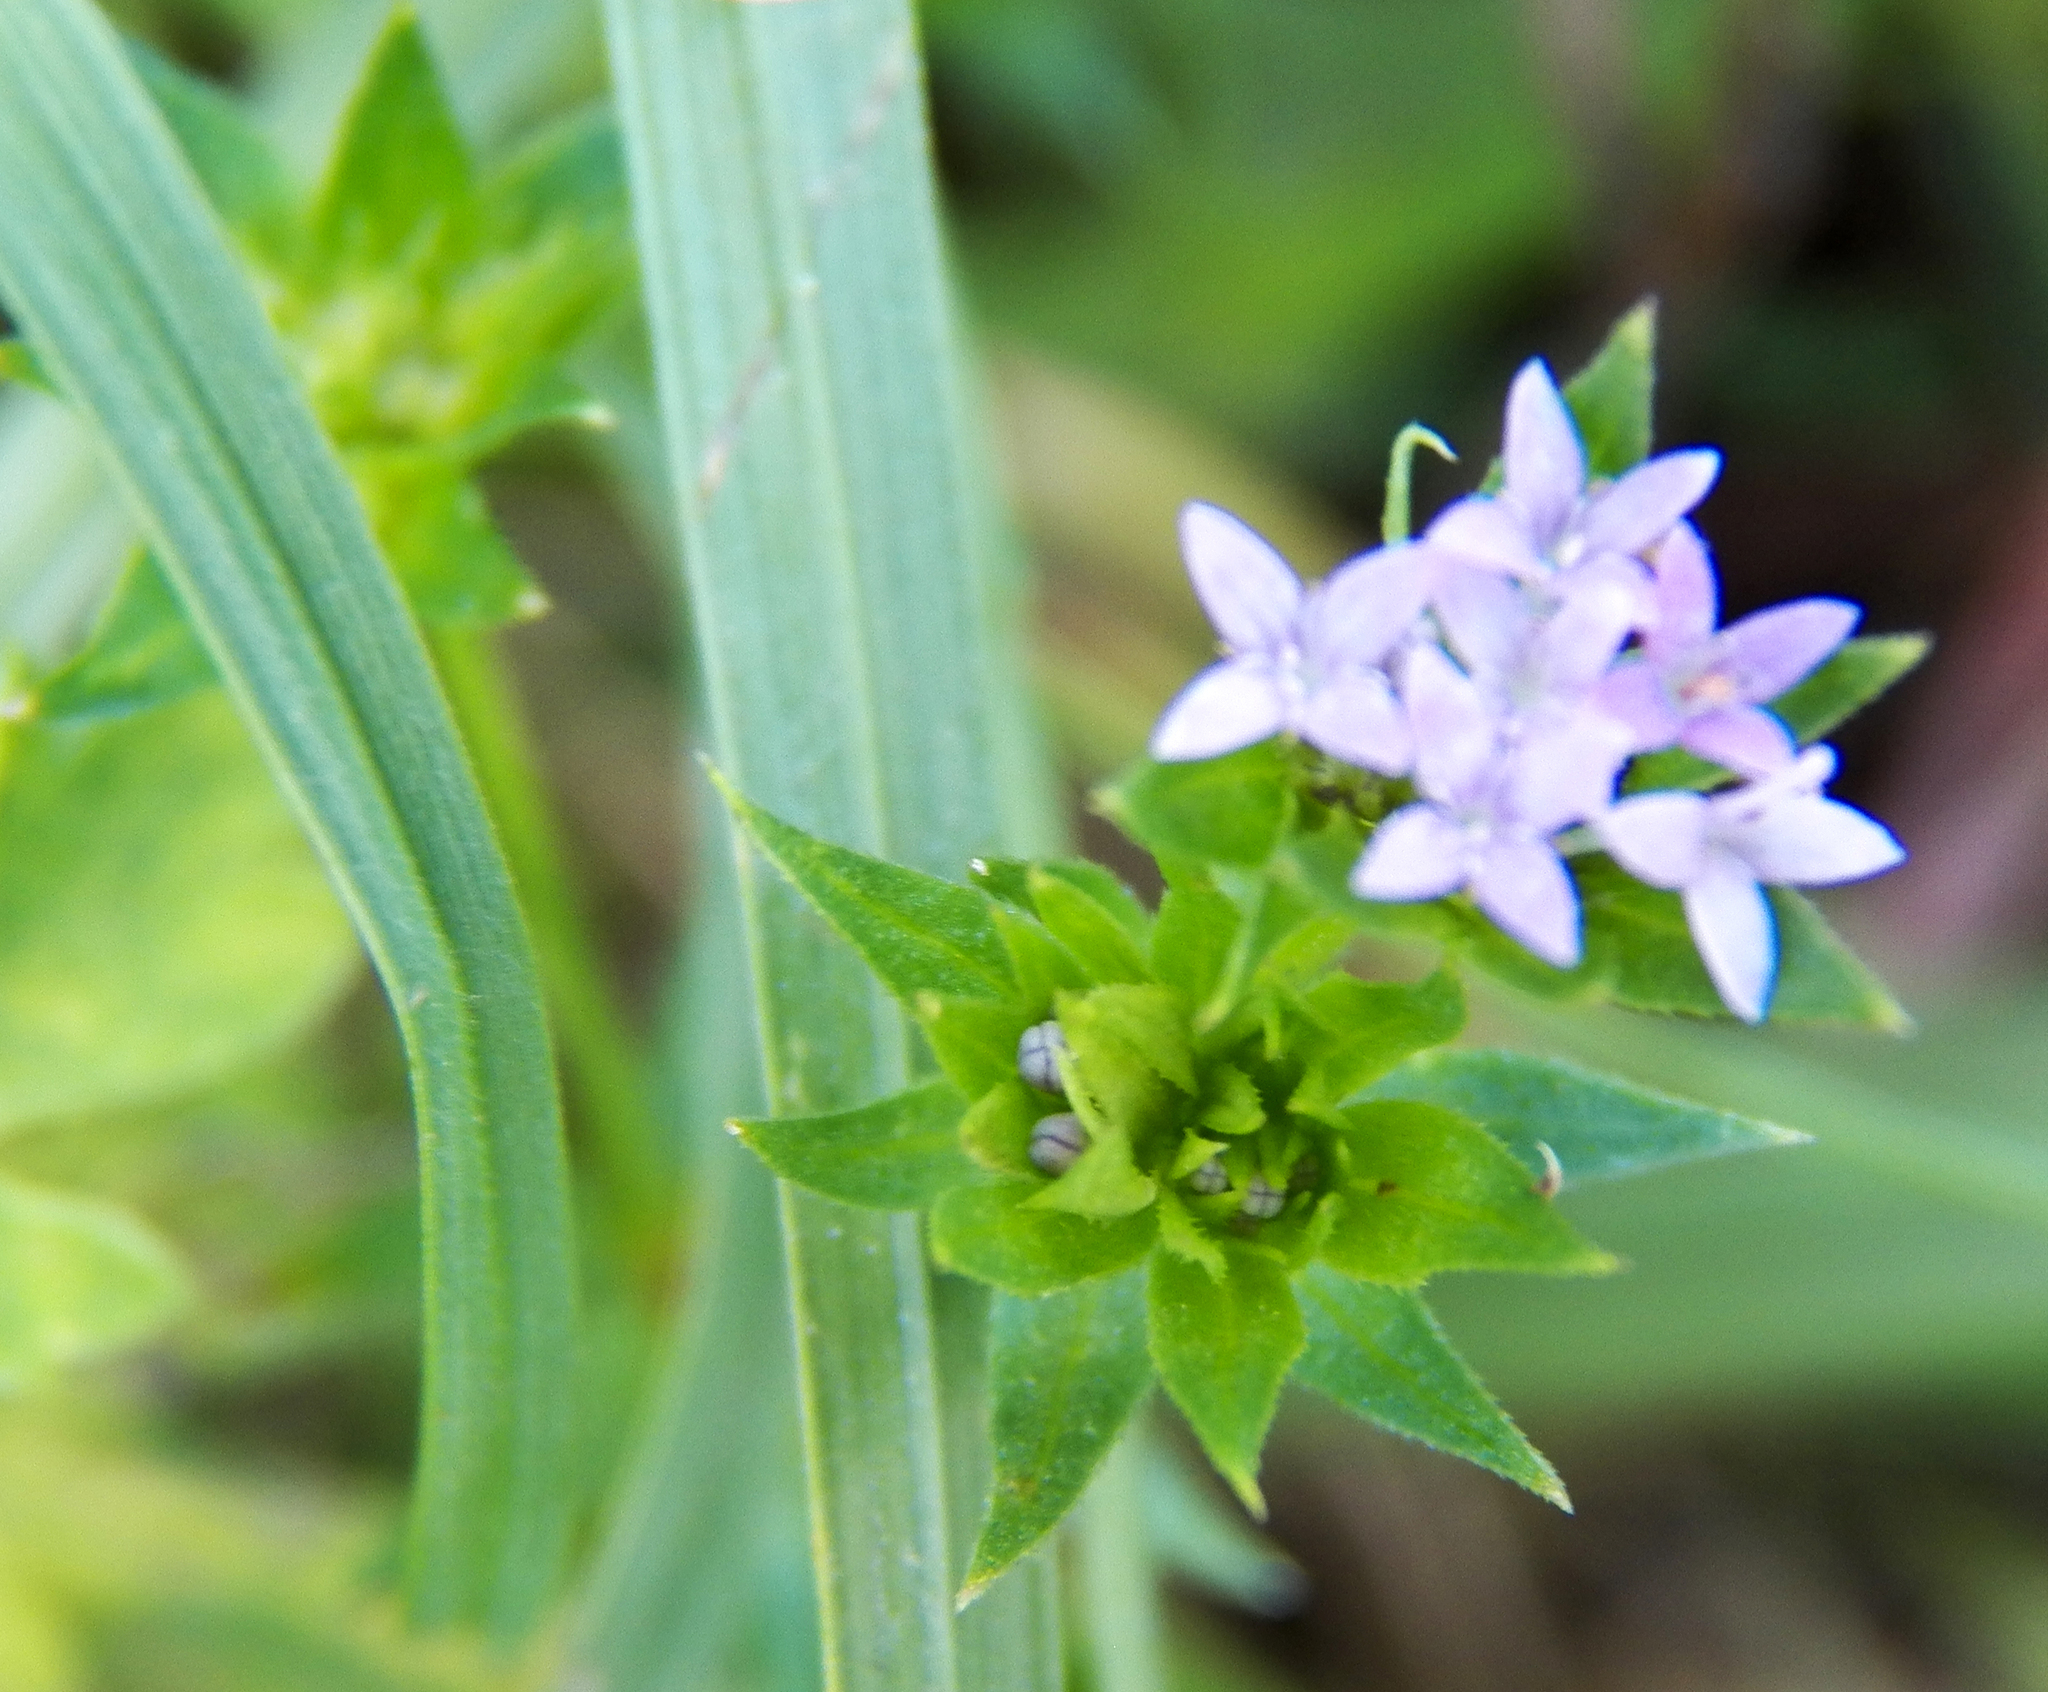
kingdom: Plantae
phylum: Tracheophyta
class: Magnoliopsida
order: Gentianales
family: Rubiaceae
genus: Sherardia
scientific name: Sherardia arvensis
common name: Field madder
